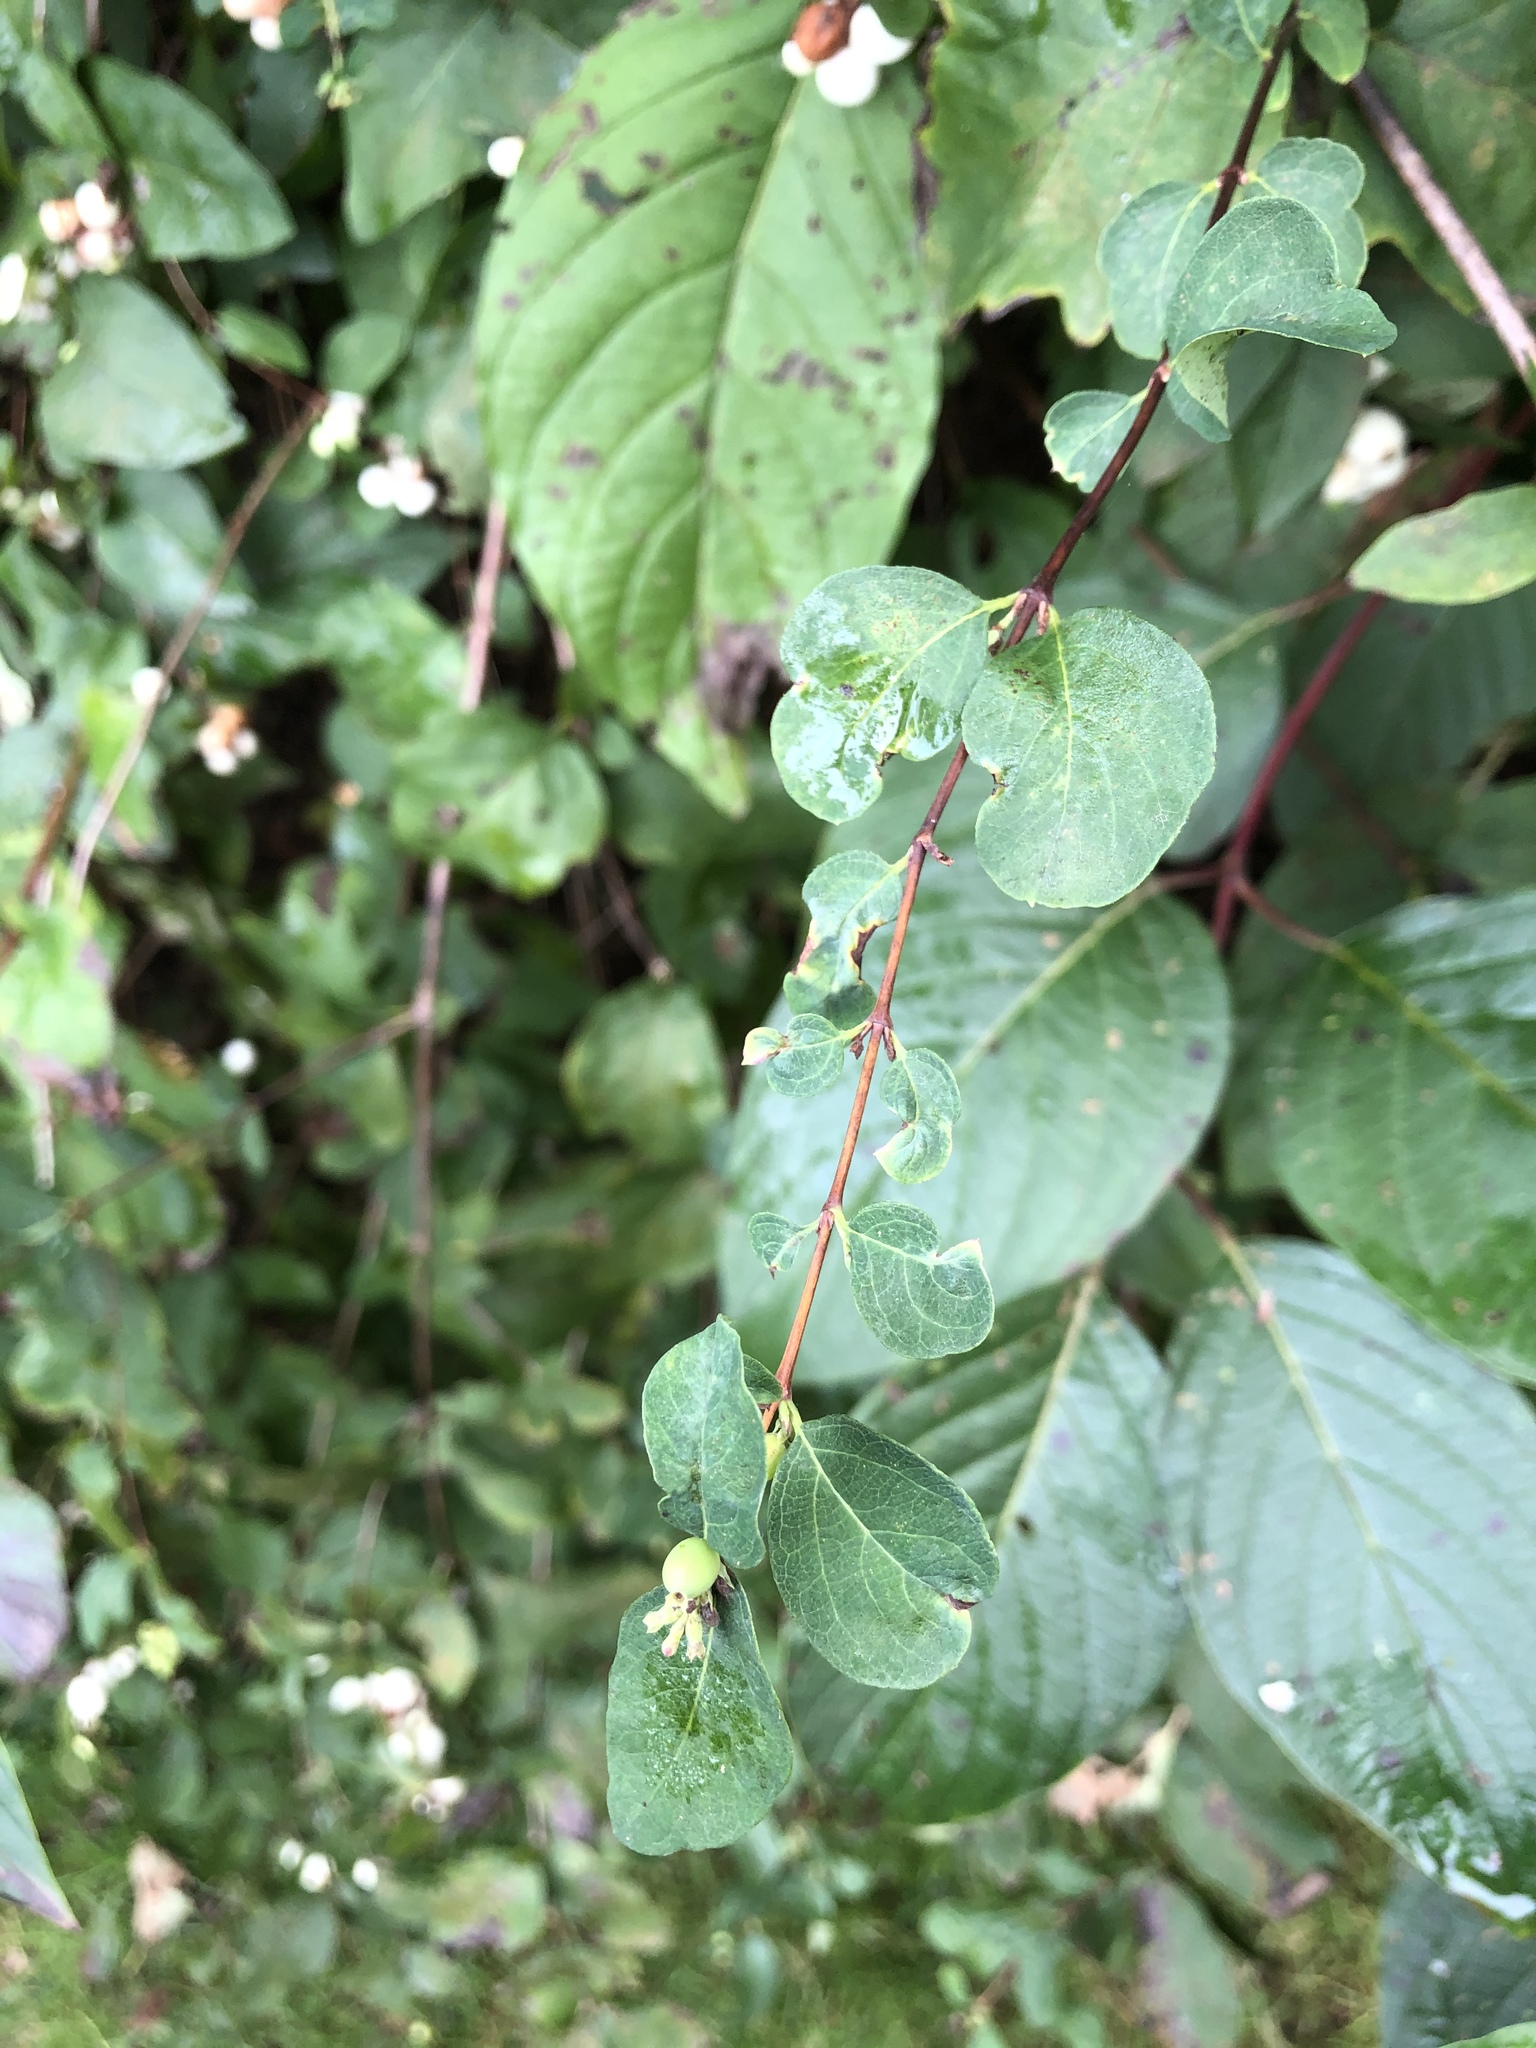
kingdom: Plantae
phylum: Tracheophyta
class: Magnoliopsida
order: Cornales
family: Cornaceae
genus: Cornus
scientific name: Cornus sericea
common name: Red-osier dogwood
